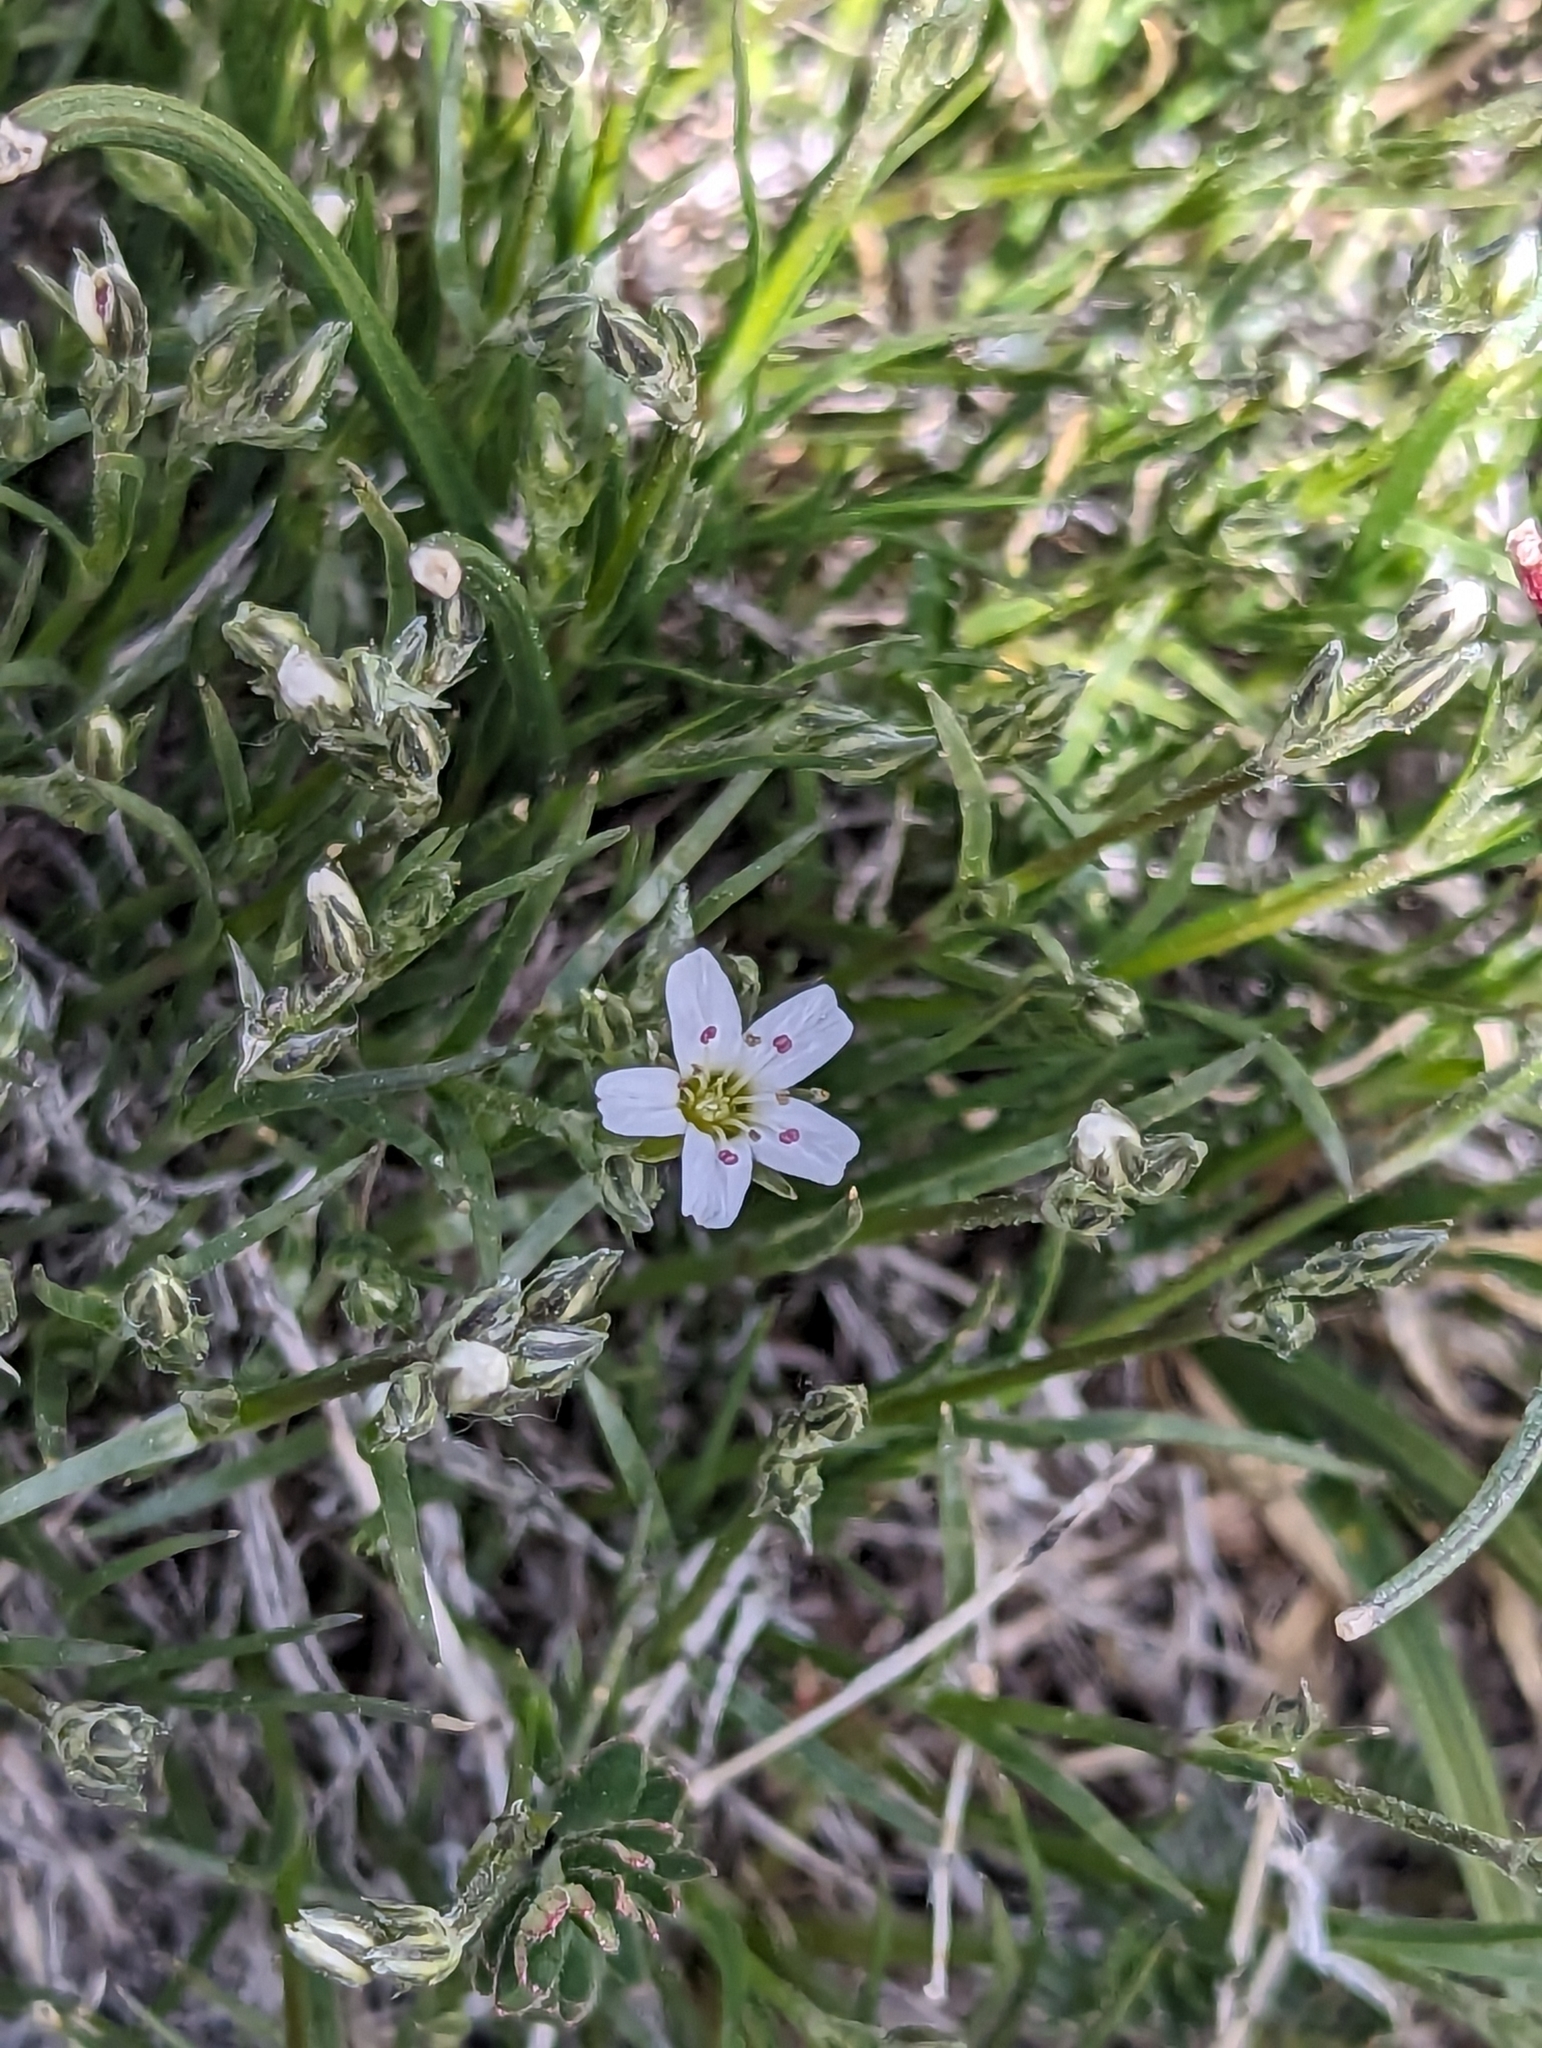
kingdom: Plantae
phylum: Tracheophyta
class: Magnoliopsida
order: Caryophyllales
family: Caryophyllaceae
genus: Eremogone
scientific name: Eremogone fendleri
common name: Fendler's sandwort
